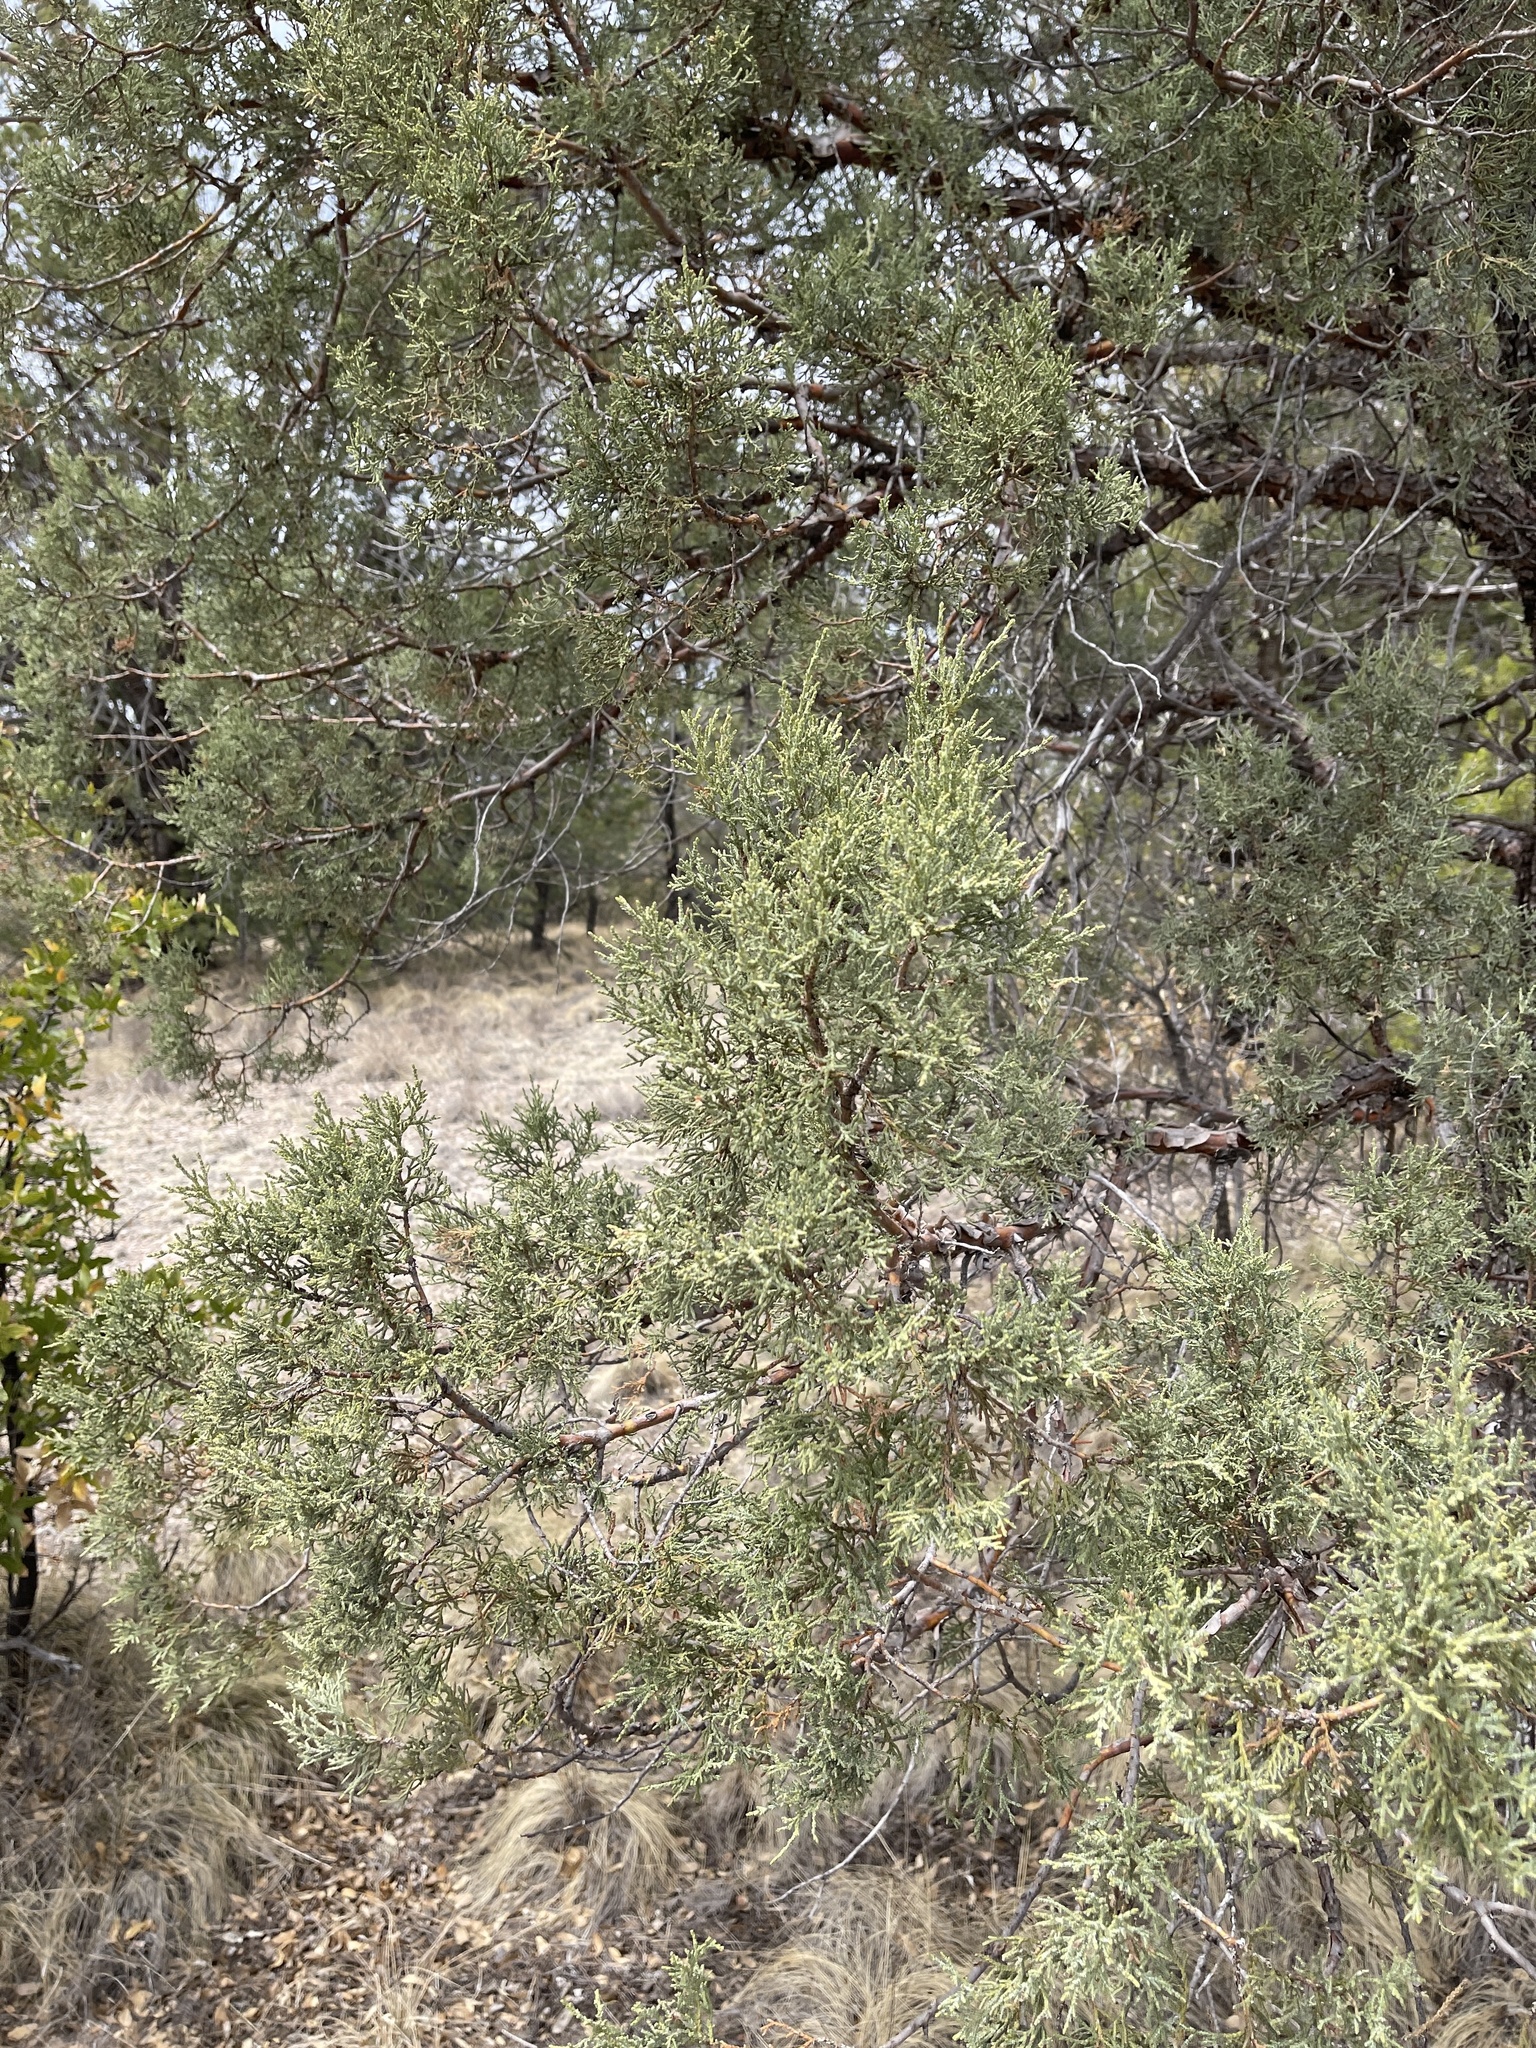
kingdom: Plantae
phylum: Tracheophyta
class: Pinopsida
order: Pinales
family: Cupressaceae
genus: Juniperus
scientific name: Juniperus deppeana
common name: Alligator juniper
